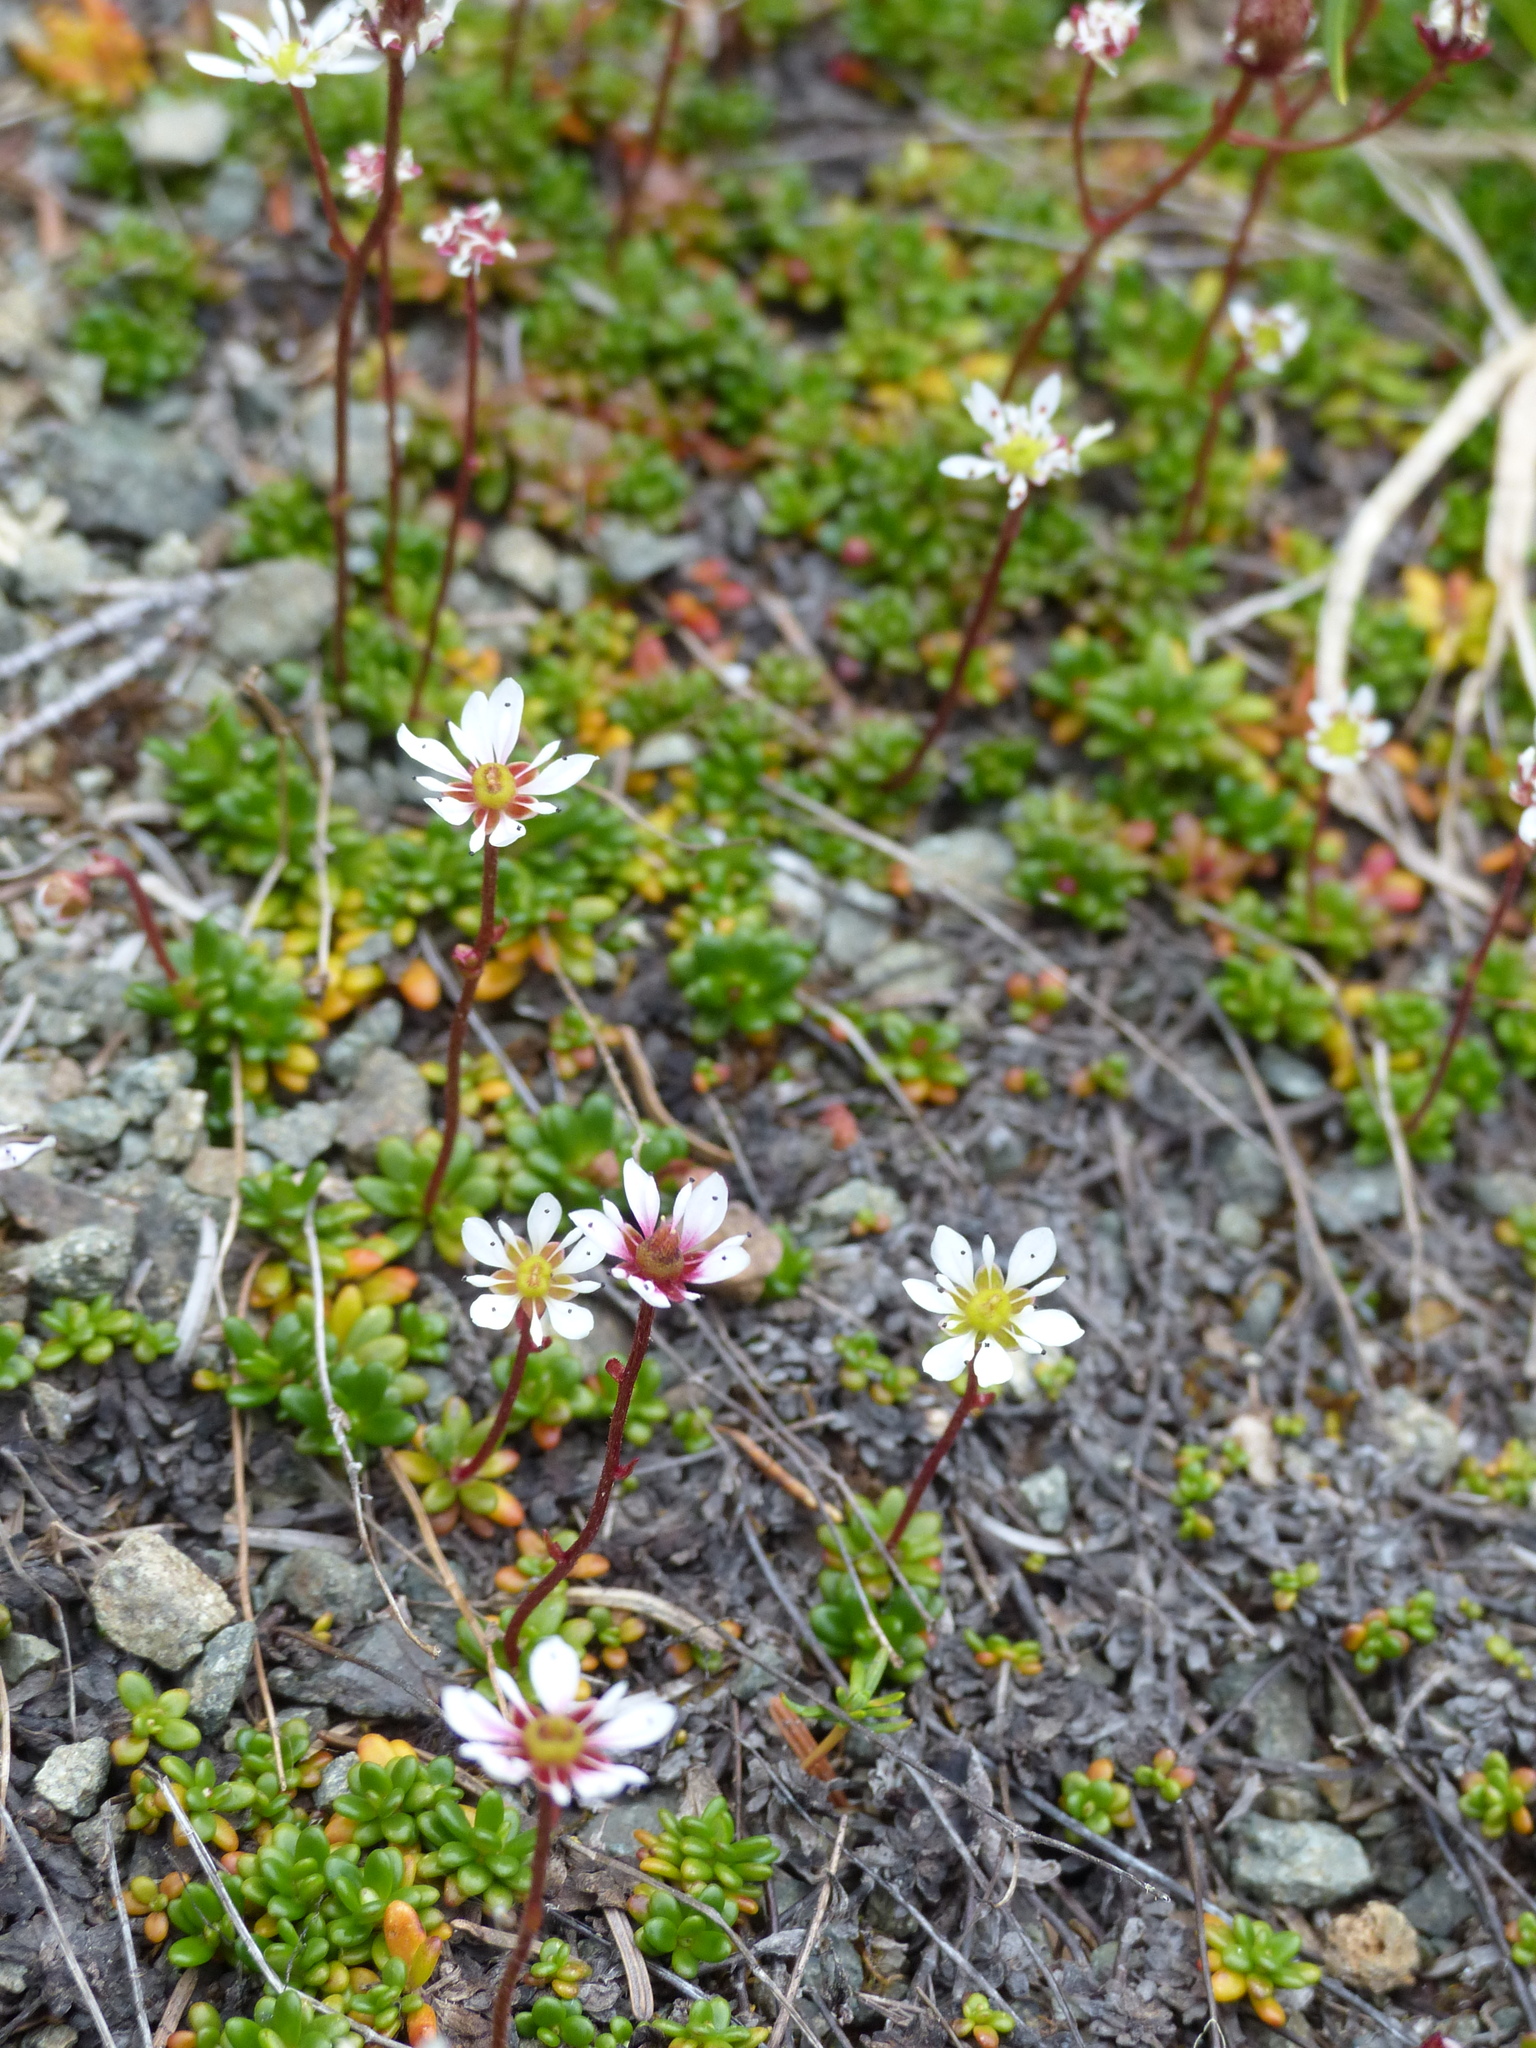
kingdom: Plantae
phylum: Tracheophyta
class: Magnoliopsida
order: Saxifragales
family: Saxifragaceae
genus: Micranthes
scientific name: Micranthes tolmiei
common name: Tolmie's saxifrage
